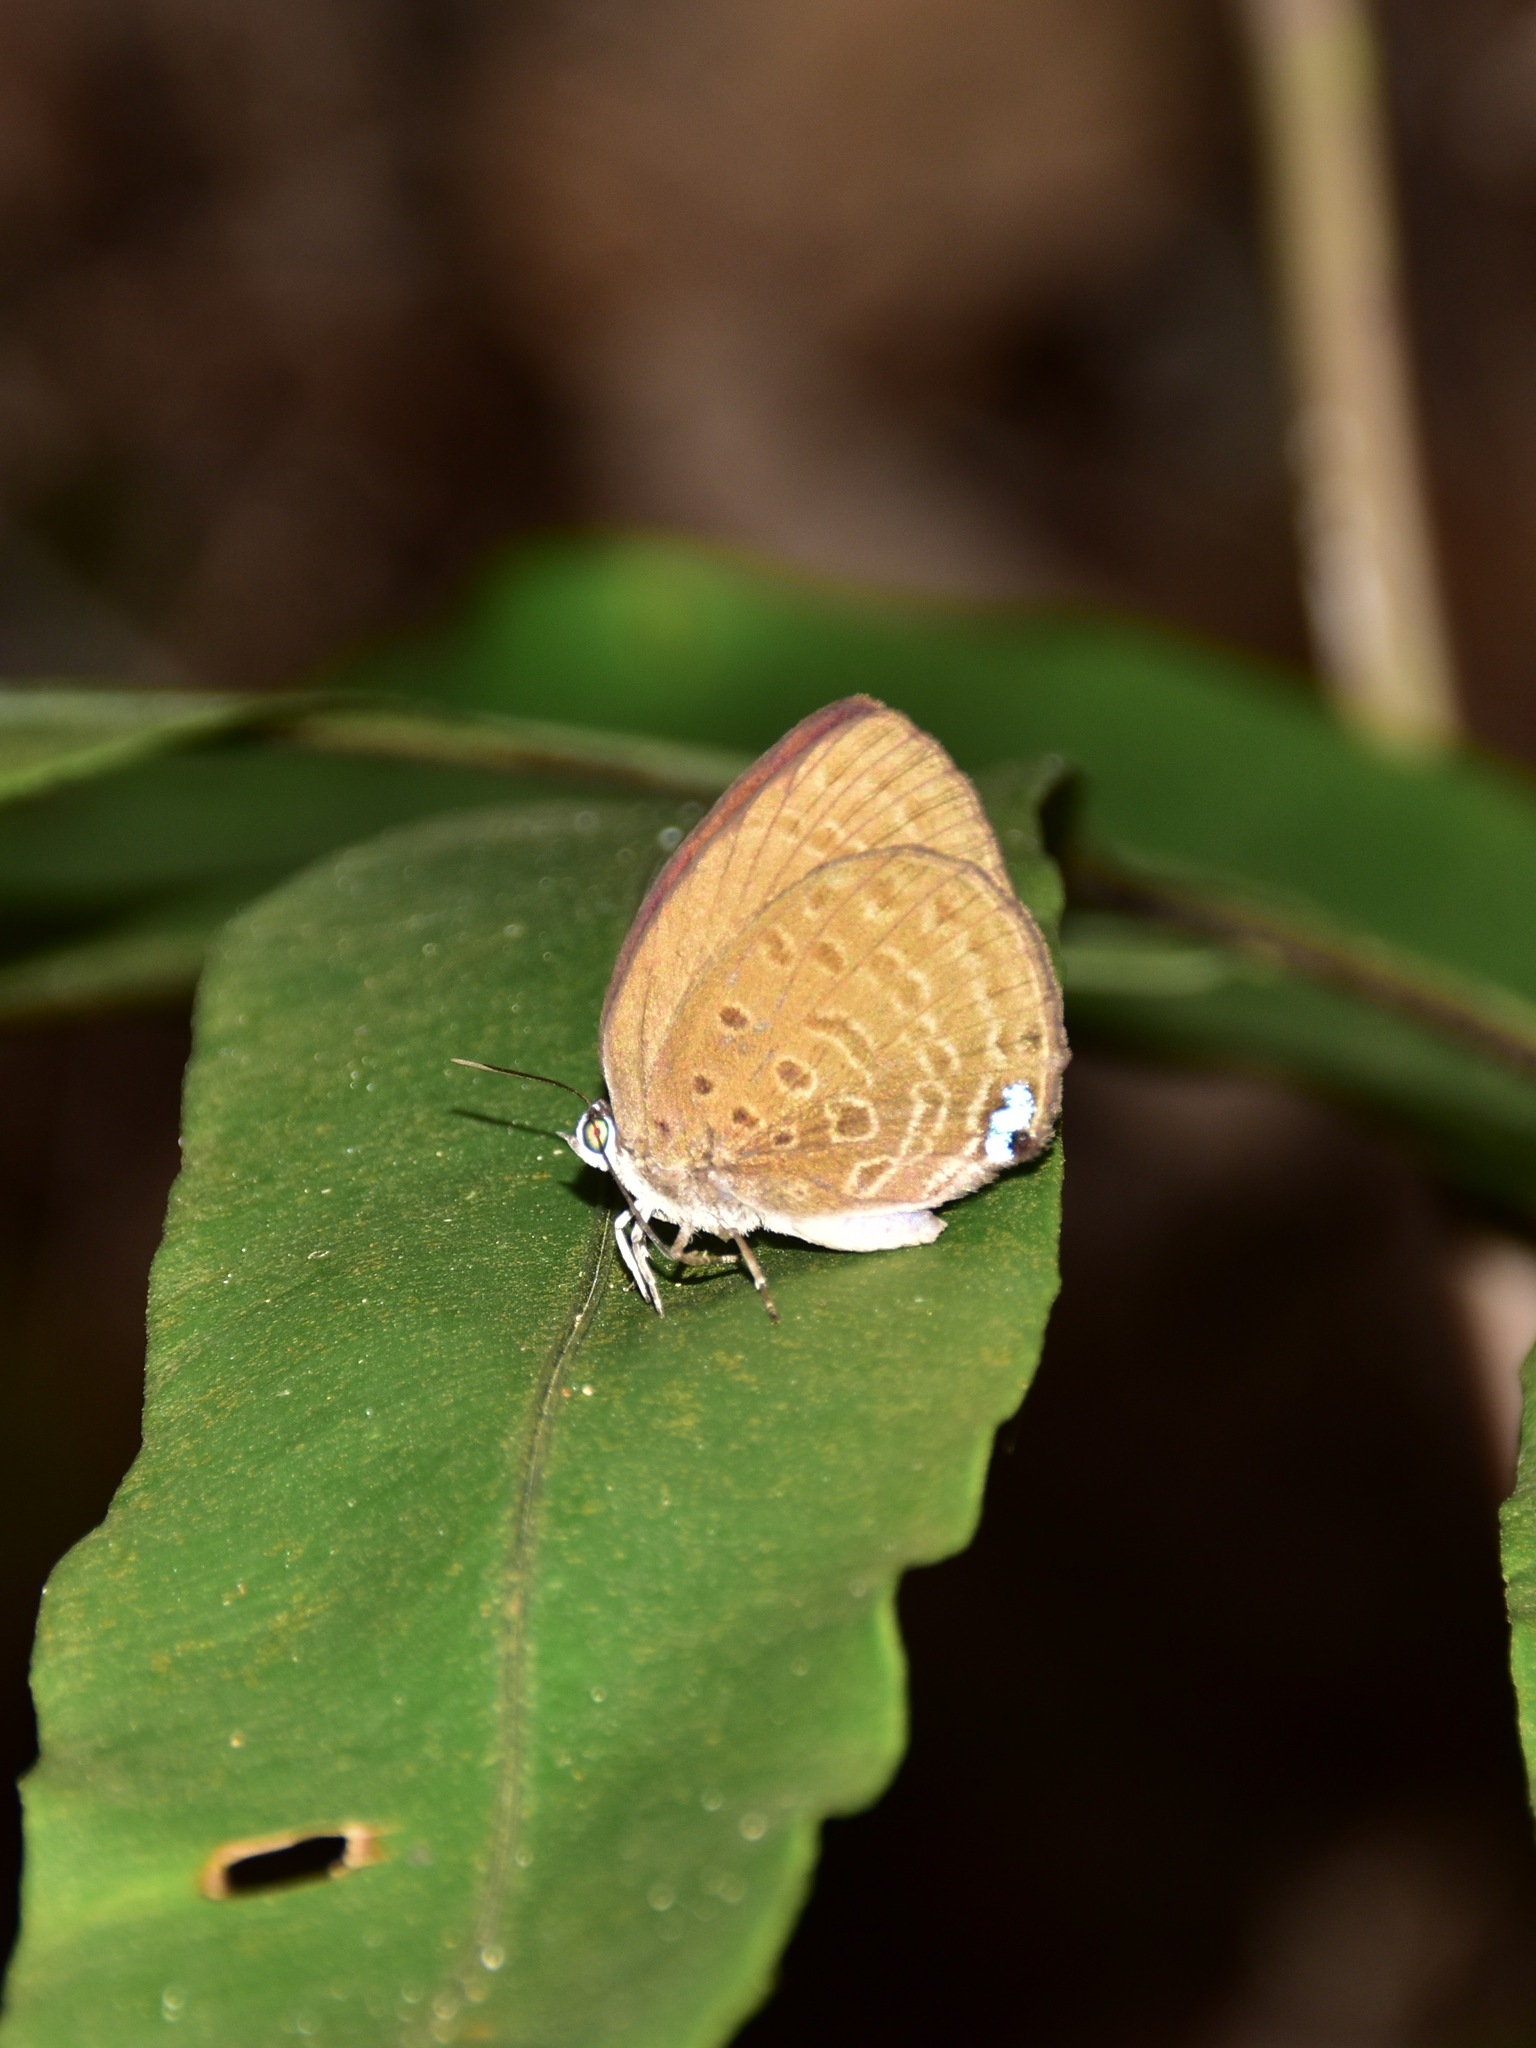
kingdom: Animalia
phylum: Arthropoda
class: Insecta
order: Lepidoptera
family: Lycaenidae
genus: Arhopala
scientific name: Arhopala major
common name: Major yellow oakblue
